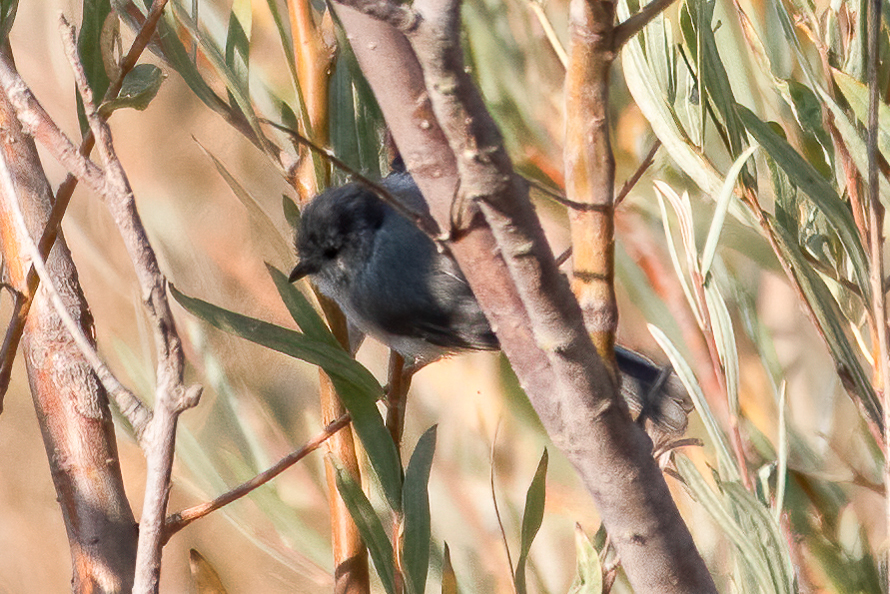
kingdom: Animalia
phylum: Chordata
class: Aves
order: Passeriformes
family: Aegithalidae
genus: Psaltriparus
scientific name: Psaltriparus minimus
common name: American bushtit
